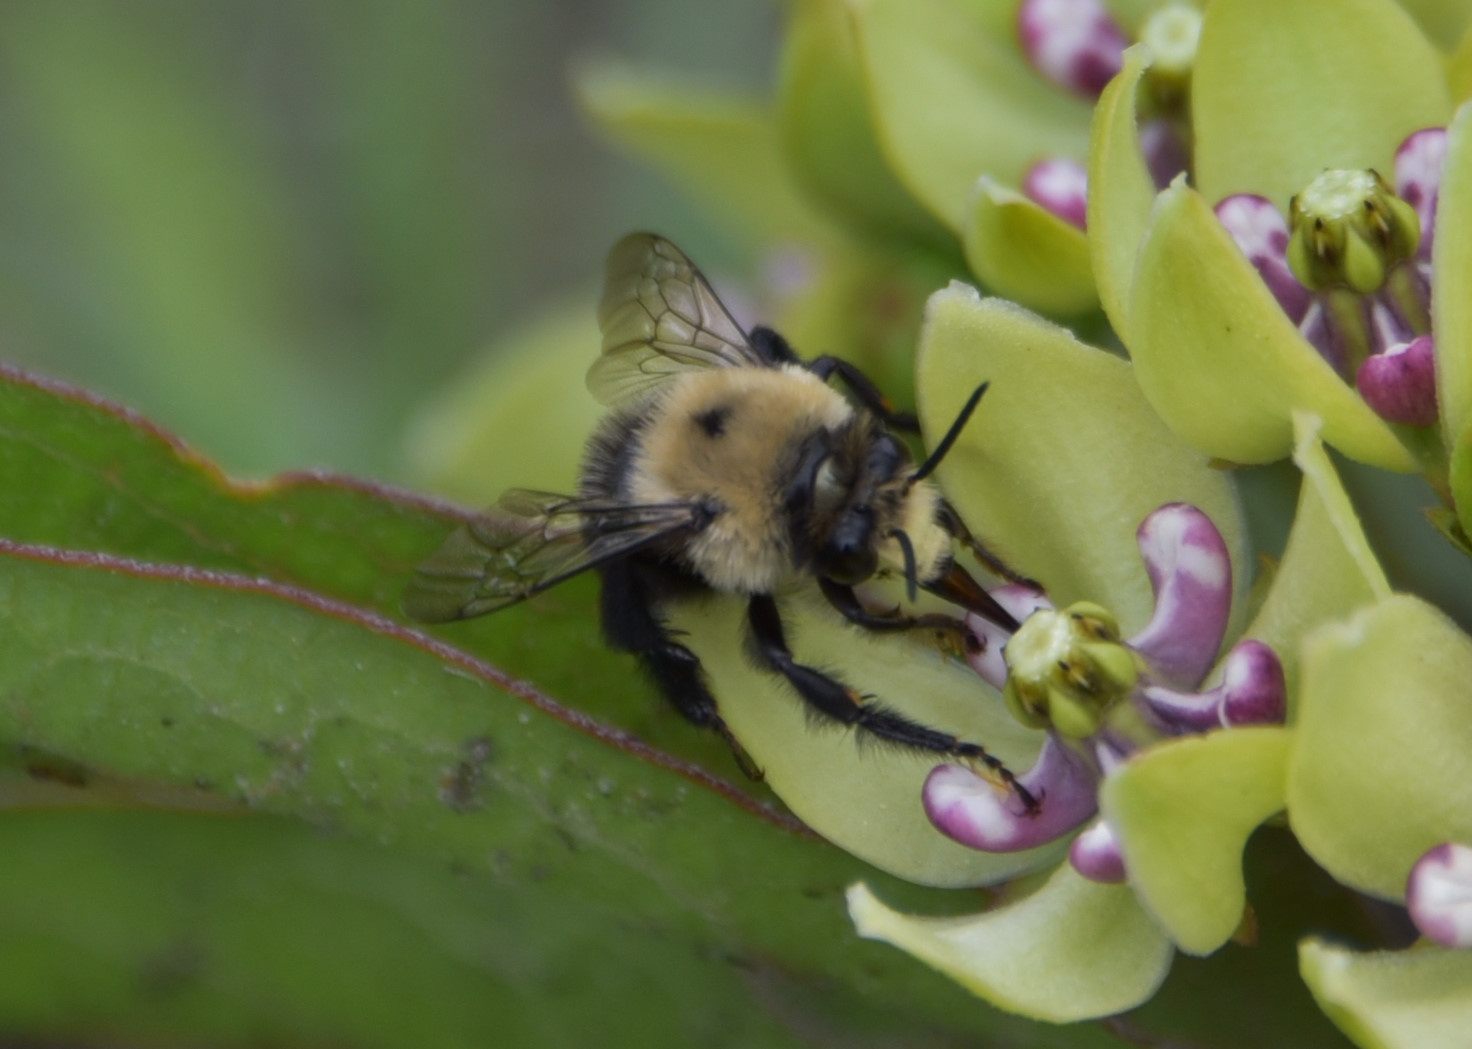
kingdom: Animalia
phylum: Arthropoda
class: Insecta
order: Hymenoptera
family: Apidae
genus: Anthophora
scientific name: Anthophora abrupta
